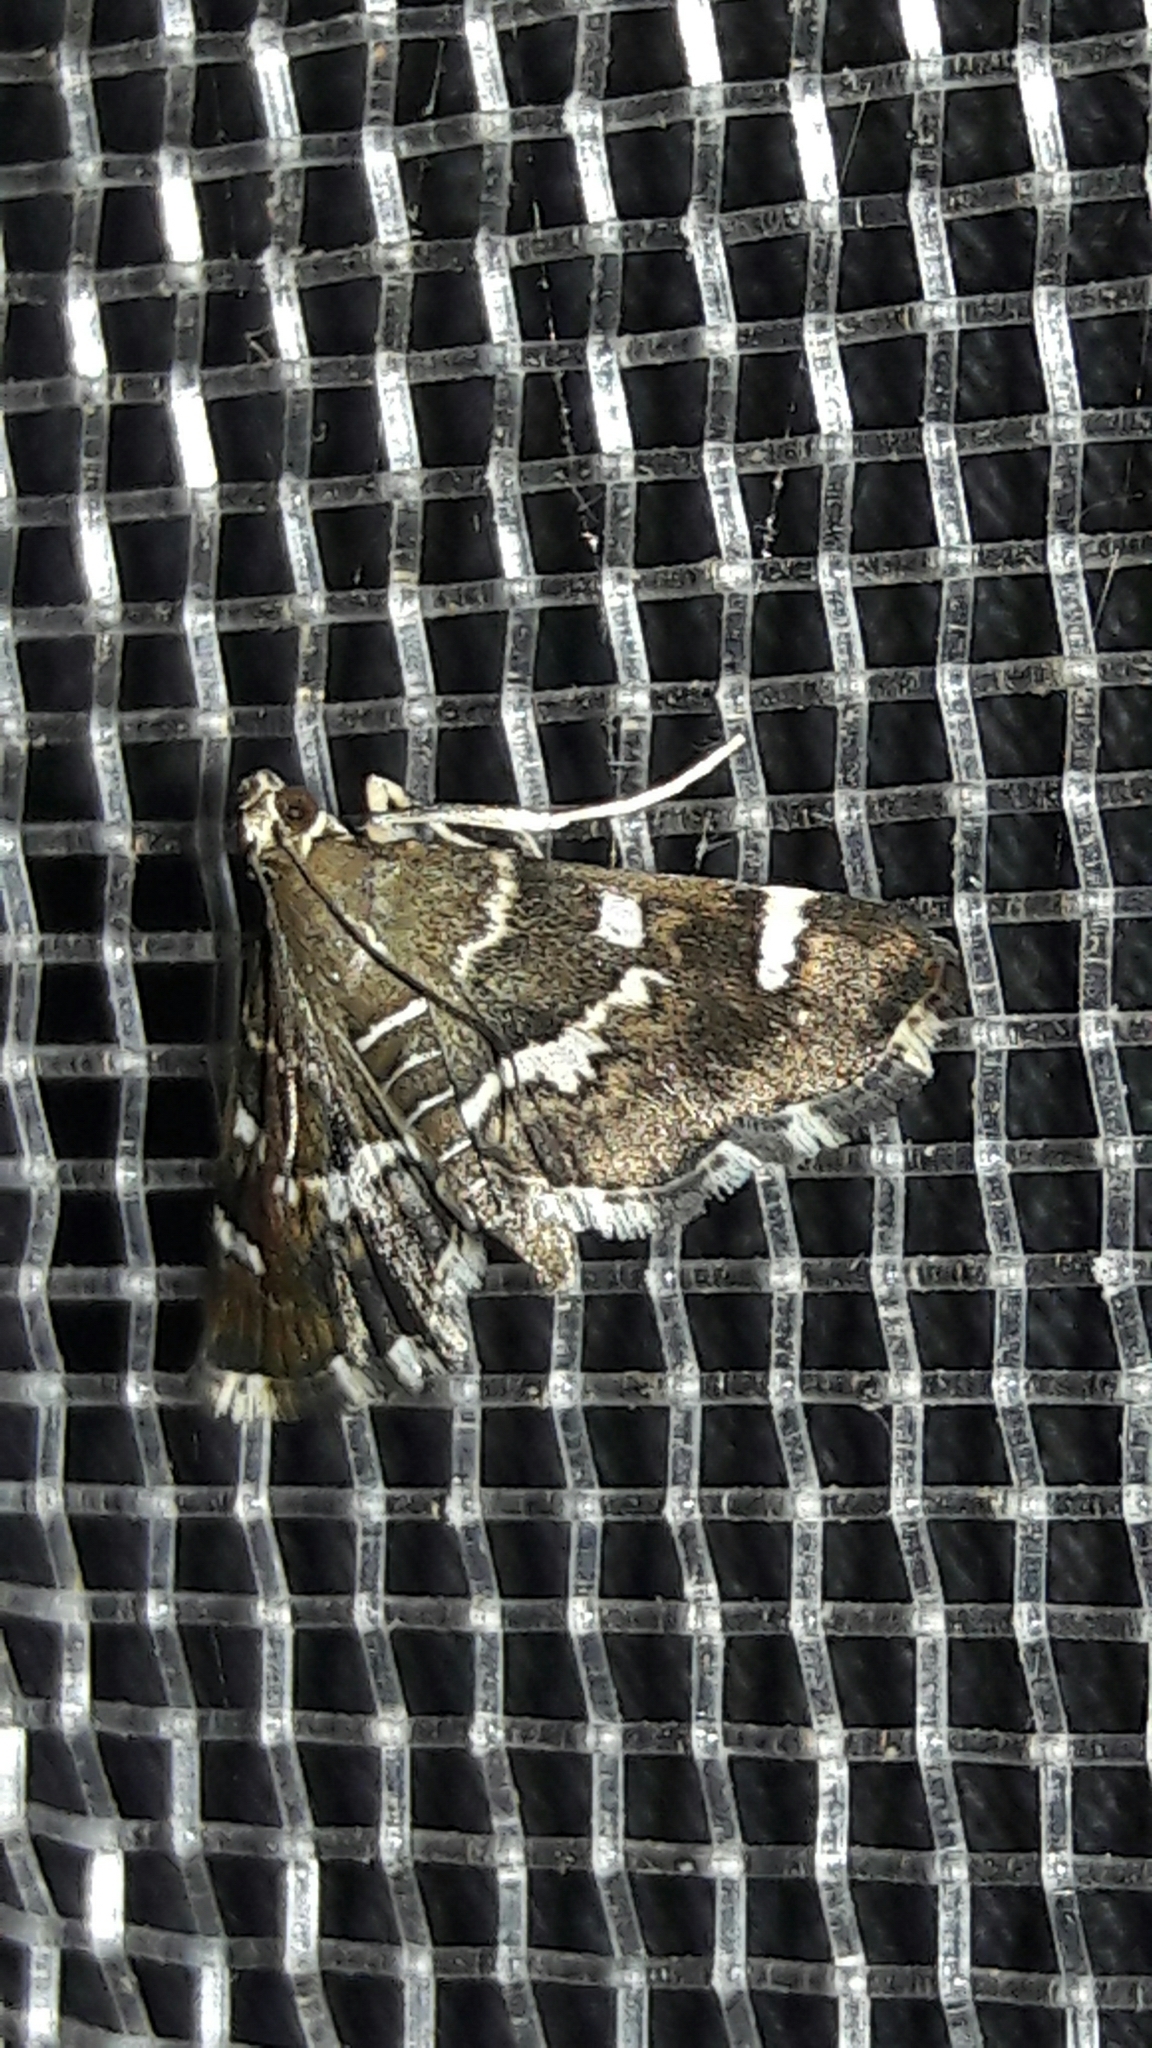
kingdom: Animalia
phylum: Arthropoda
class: Insecta
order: Lepidoptera
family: Crambidae
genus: Hymenia
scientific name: Hymenia perspectalis
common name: Spotted beet webworm
